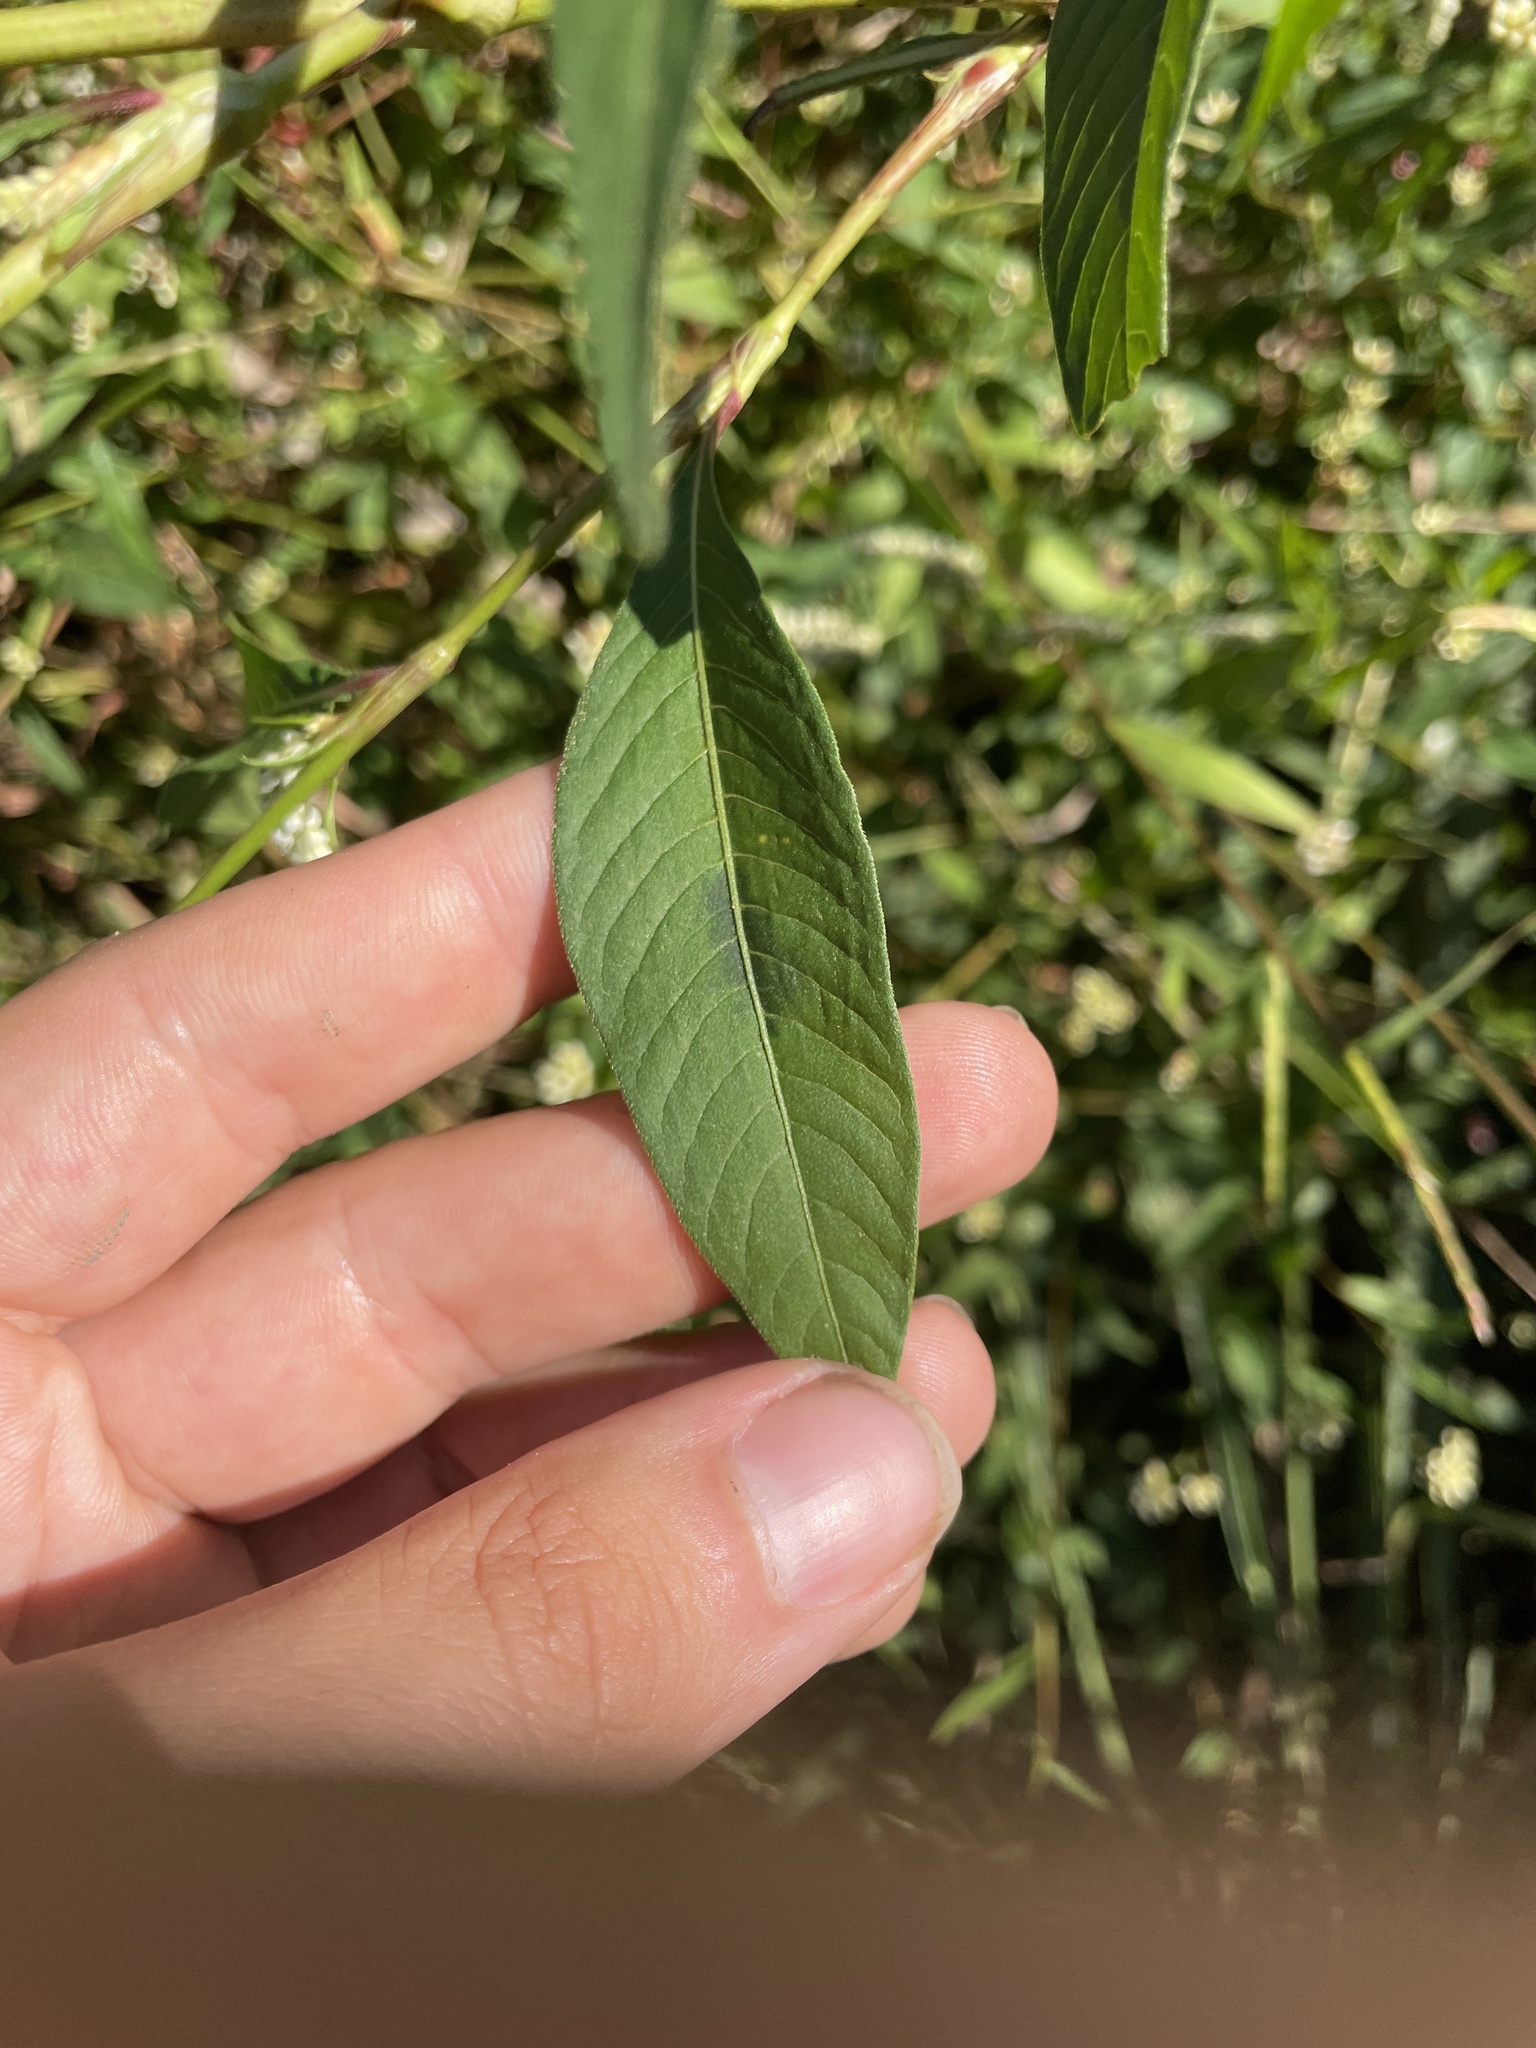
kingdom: Plantae
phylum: Tracheophyta
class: Magnoliopsida
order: Caryophyllales
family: Polygonaceae
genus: Persicaria
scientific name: Persicaria lapathifolia
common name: Curlytop knotweed
